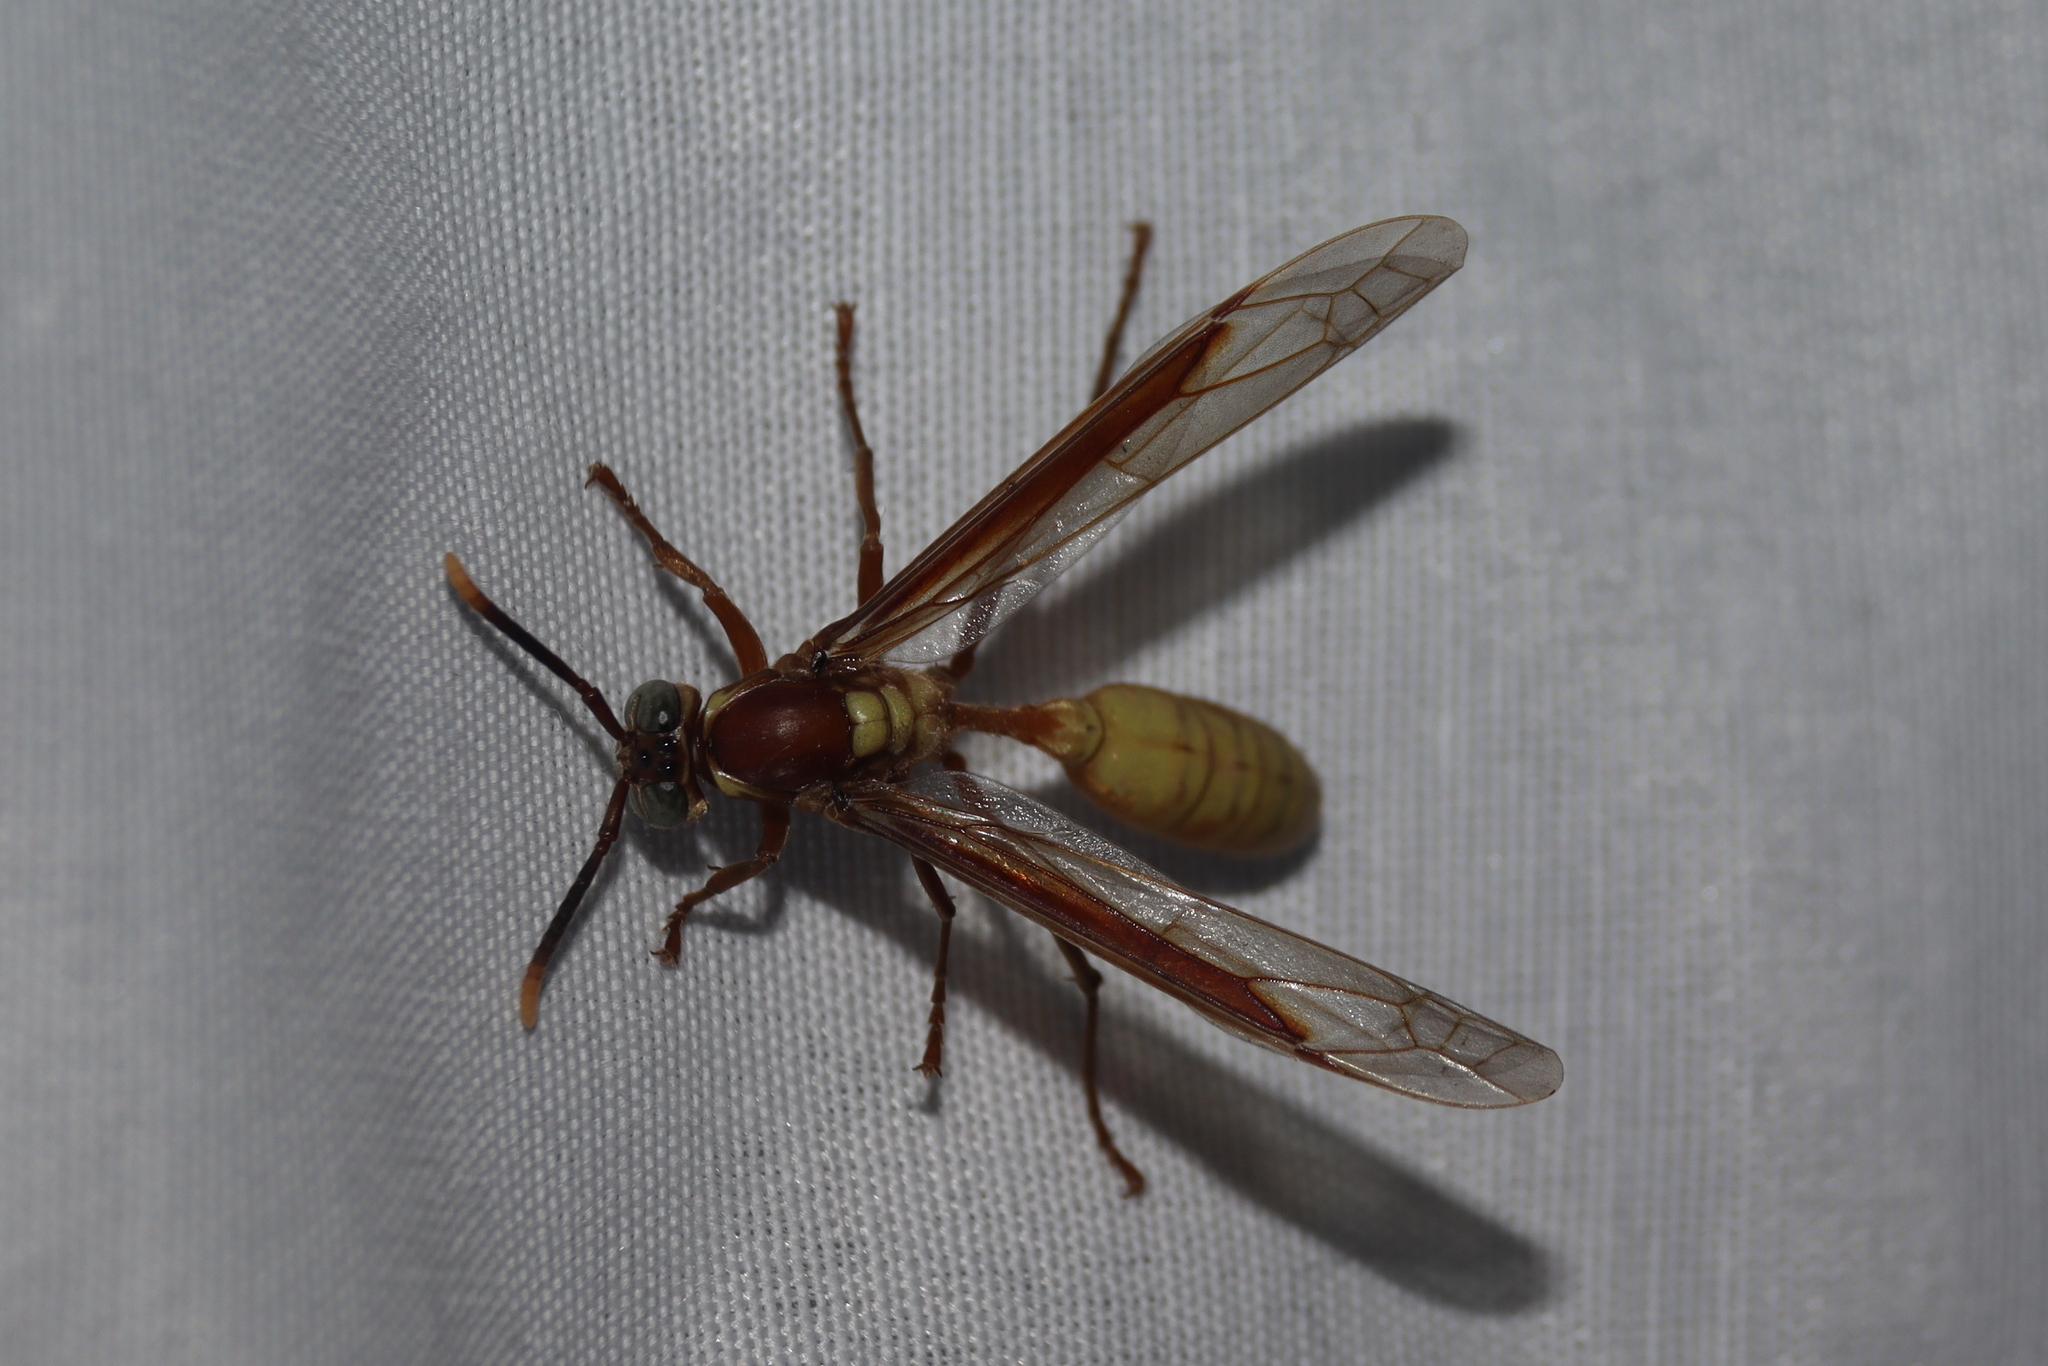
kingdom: Animalia
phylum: Arthropoda
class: Insecta
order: Hymenoptera
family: Vespidae
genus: Apoica
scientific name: Apoica gelida
